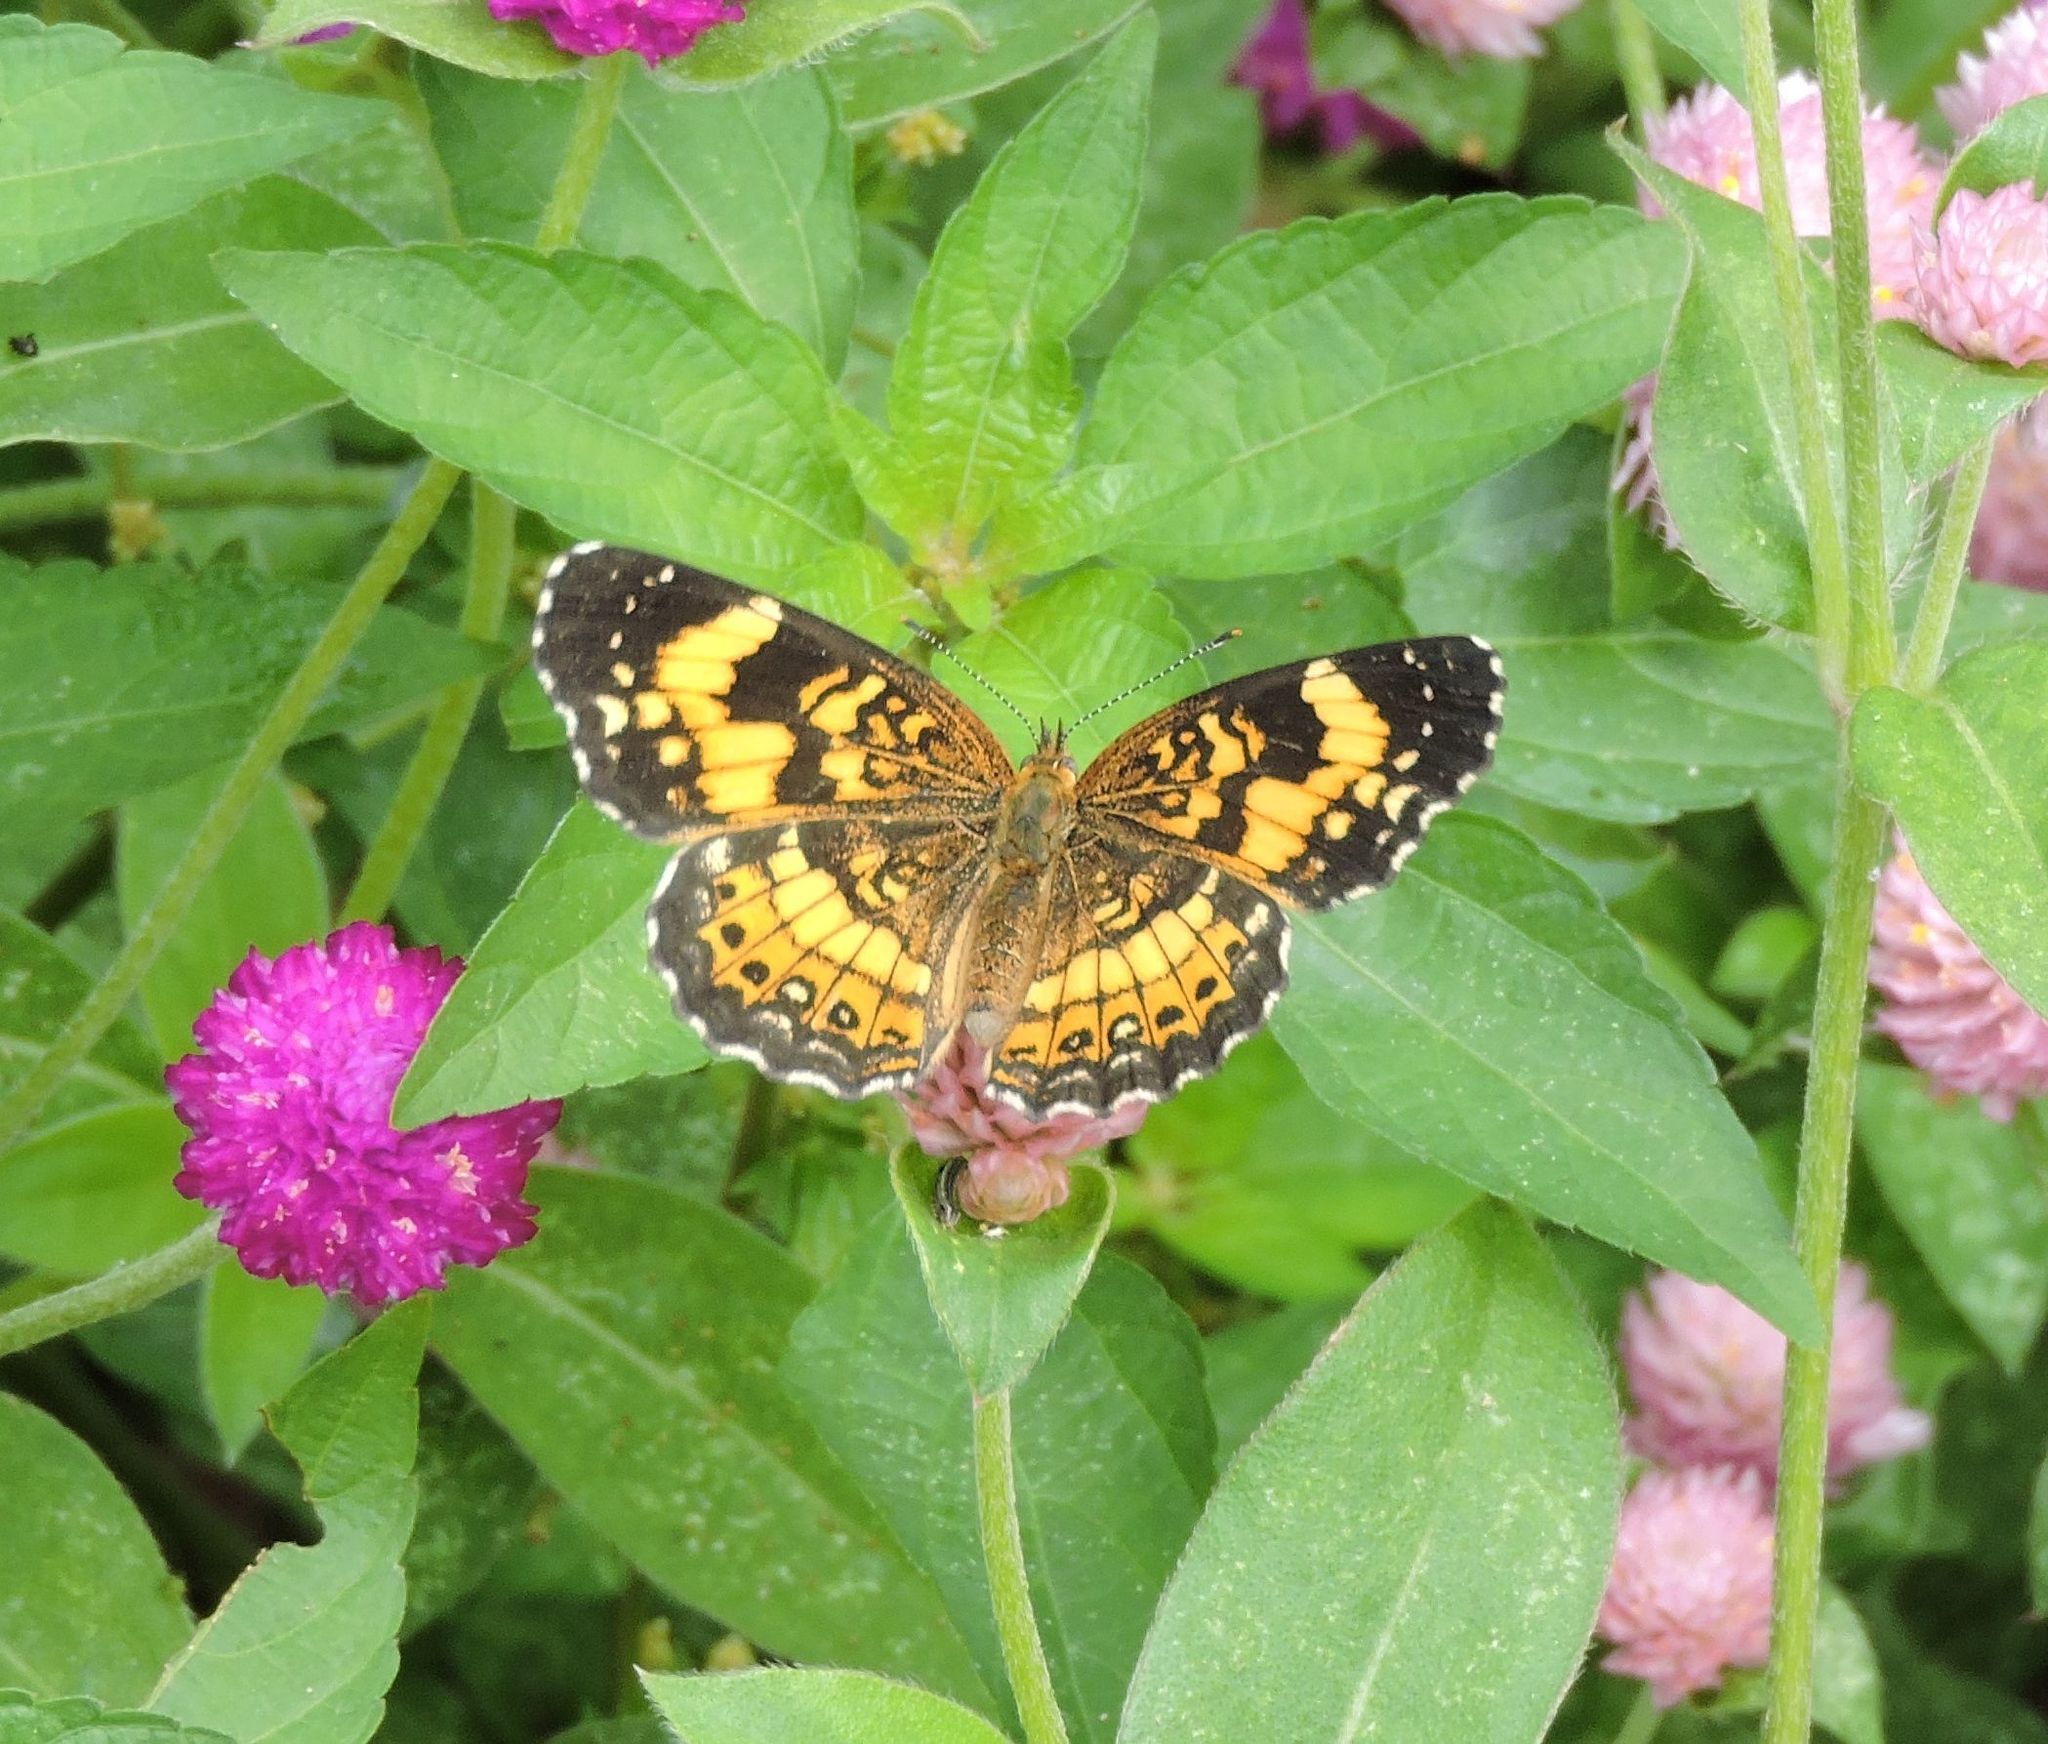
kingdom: Animalia
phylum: Arthropoda
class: Insecta
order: Lepidoptera
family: Nymphalidae
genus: Chlosyne
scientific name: Chlosyne nycteis
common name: Silvery checkerspot
